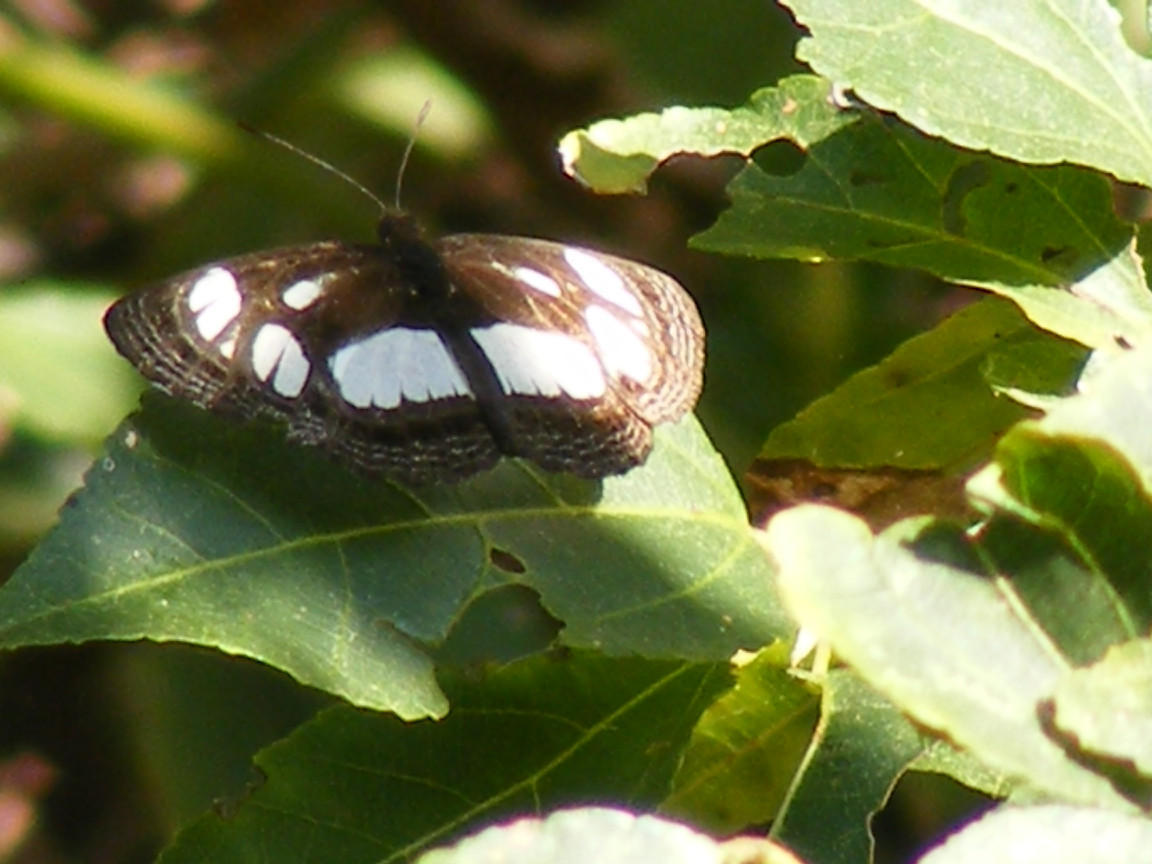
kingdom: Animalia
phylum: Arthropoda
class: Insecta
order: Lepidoptera
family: Nymphalidae
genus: Neptis
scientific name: Neptis goochii
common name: Streaked sailor
